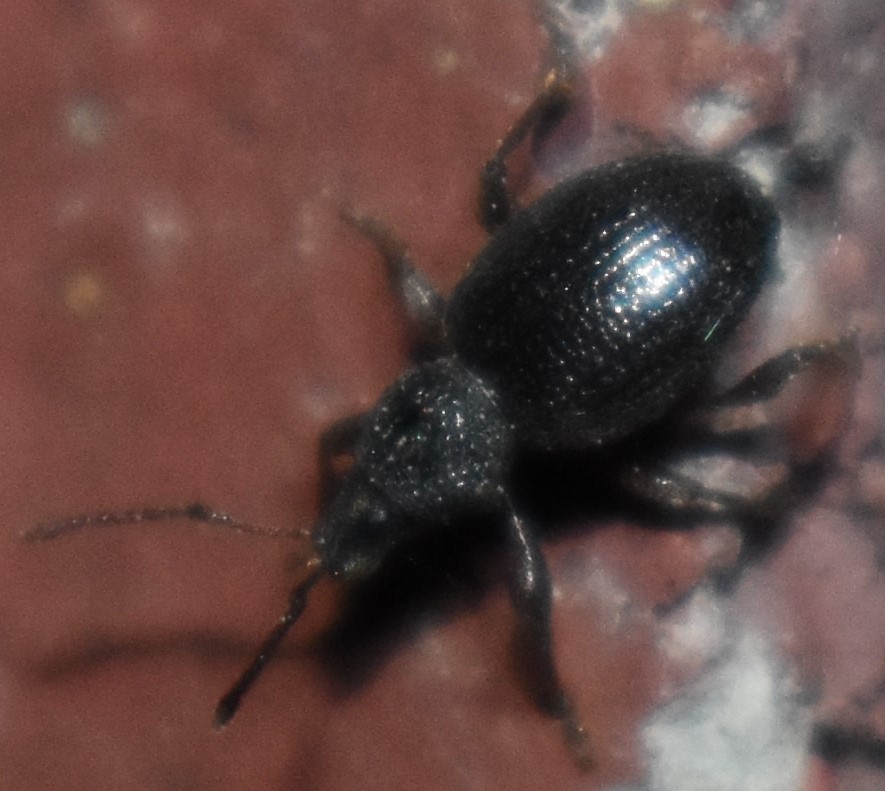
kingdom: Animalia
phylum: Arthropoda
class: Insecta
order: Coleoptera
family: Curculionidae
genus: Otiorhynchus
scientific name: Otiorhynchus ovatus
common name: Strawberry root weevil
